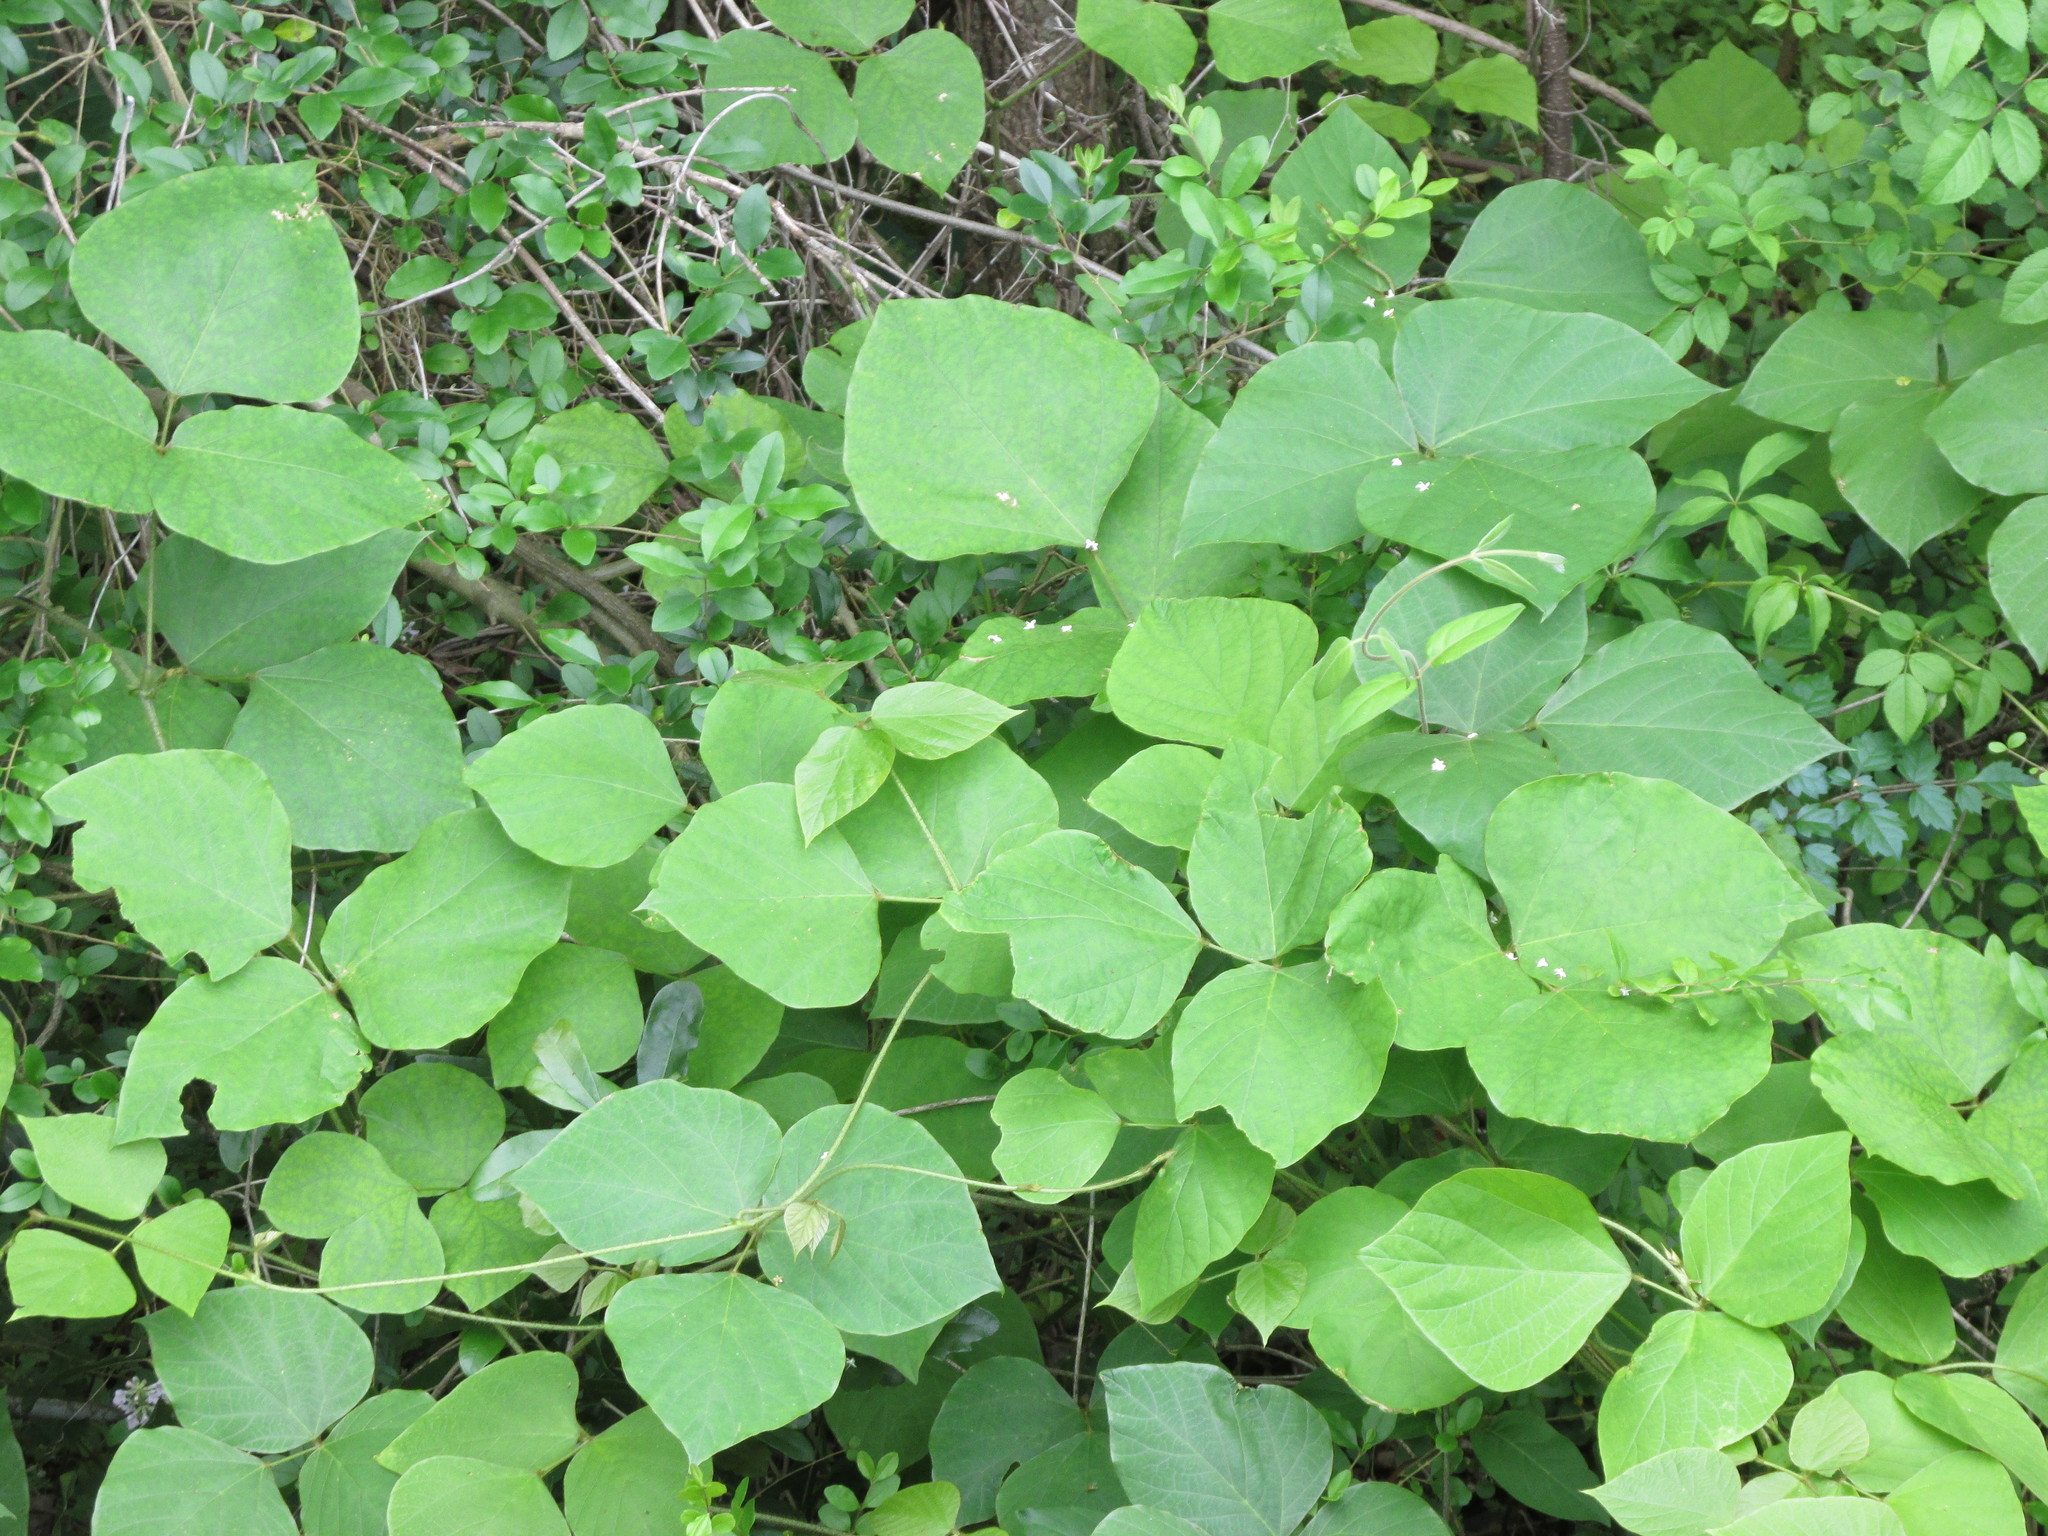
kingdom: Plantae
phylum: Tracheophyta
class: Magnoliopsida
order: Fabales
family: Fabaceae
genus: Pueraria
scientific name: Pueraria montana
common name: Kudzu
